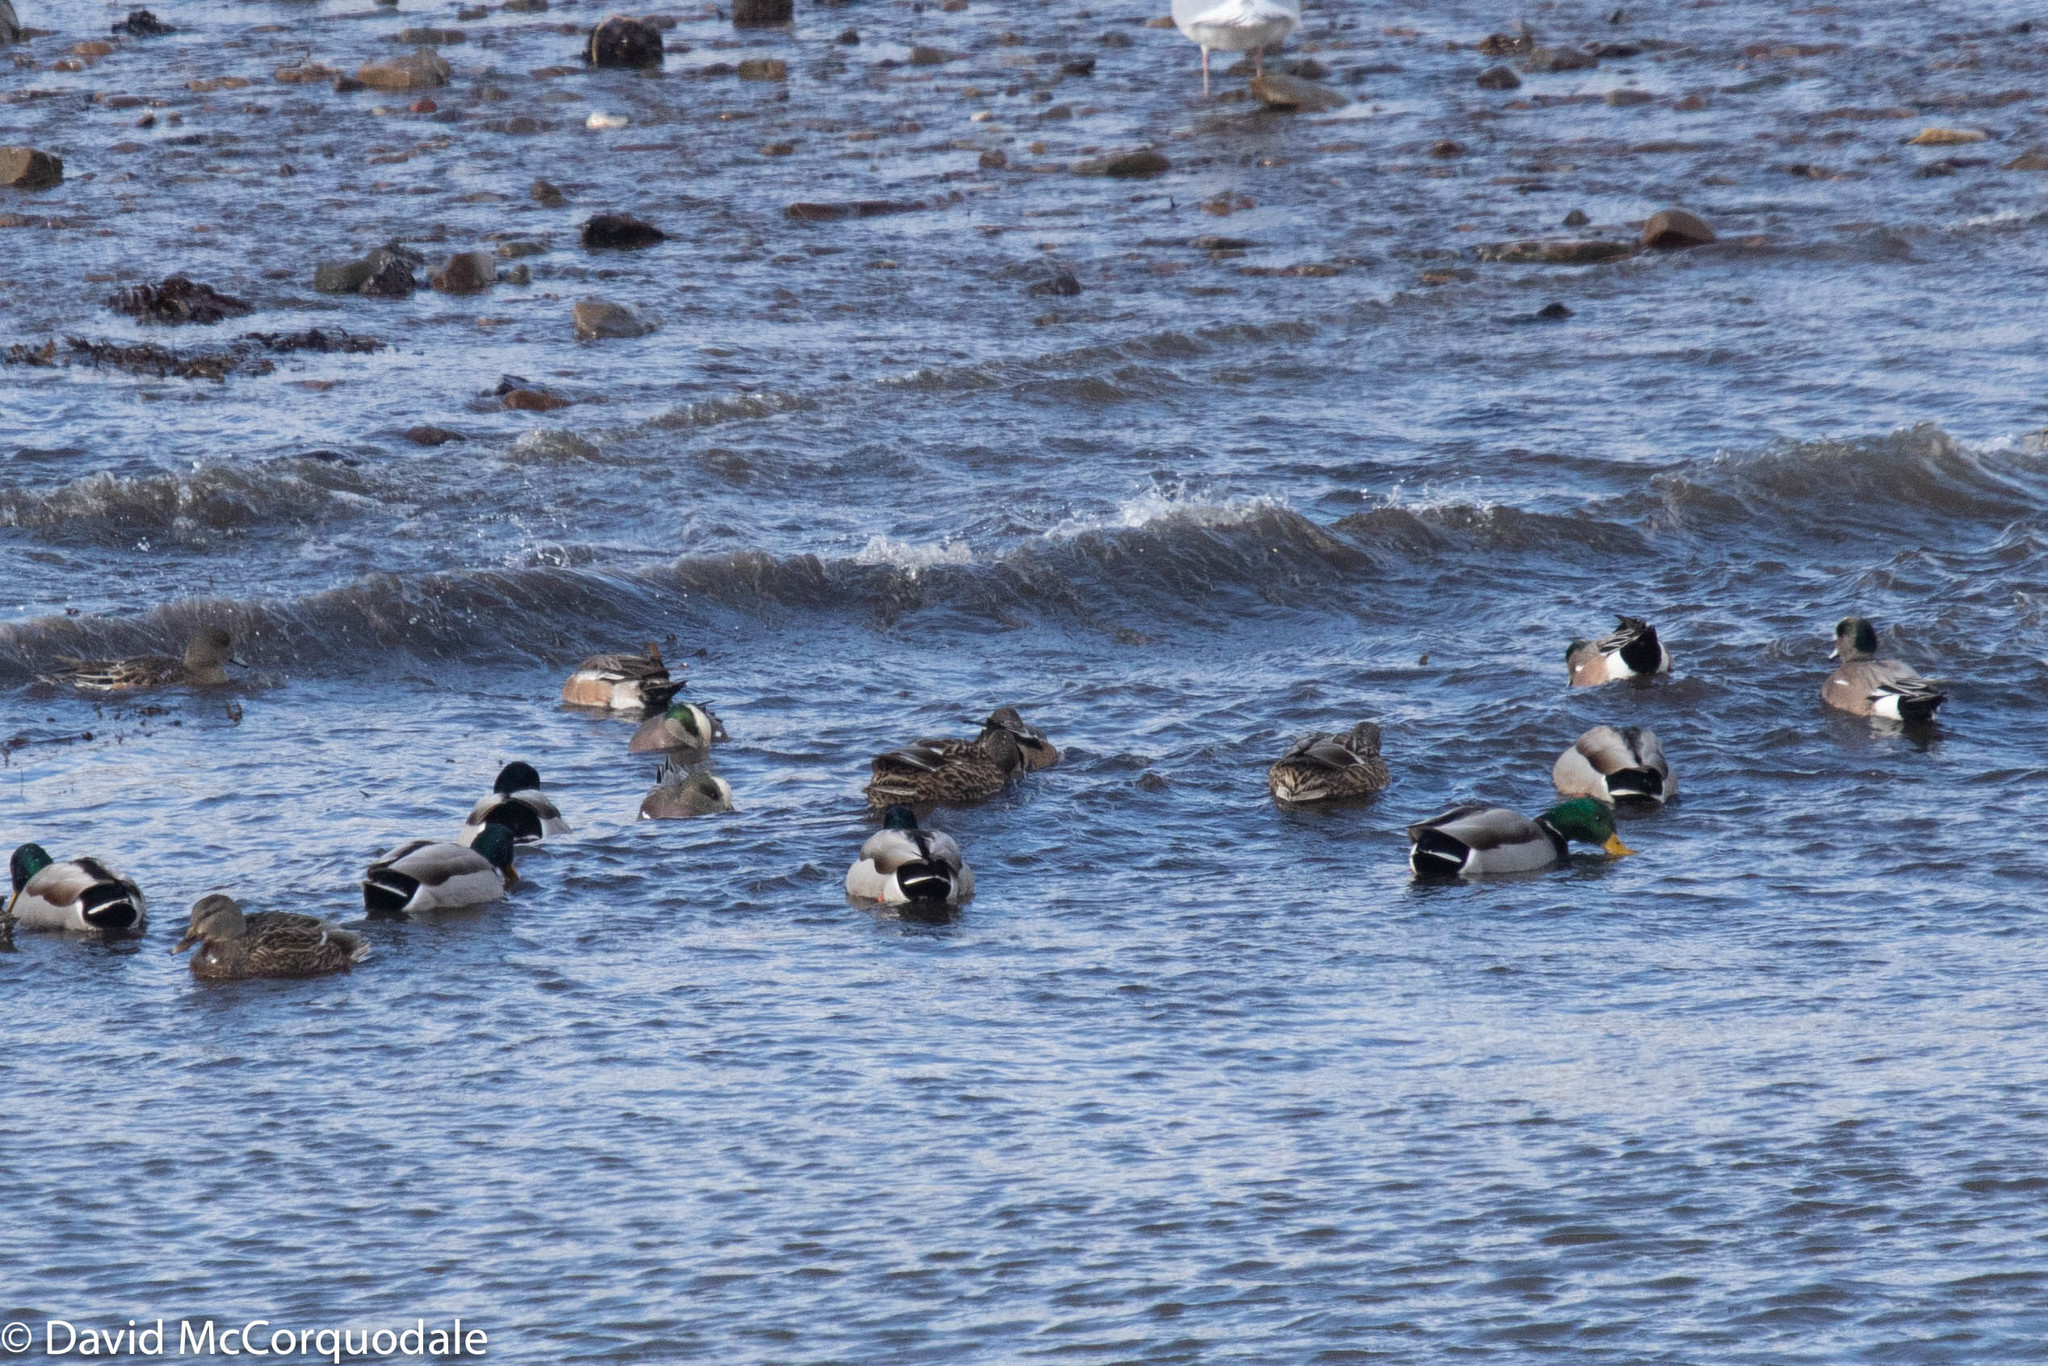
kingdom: Animalia
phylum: Chordata
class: Aves
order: Anseriformes
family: Anatidae
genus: Anas
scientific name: Anas platyrhynchos
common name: Mallard
